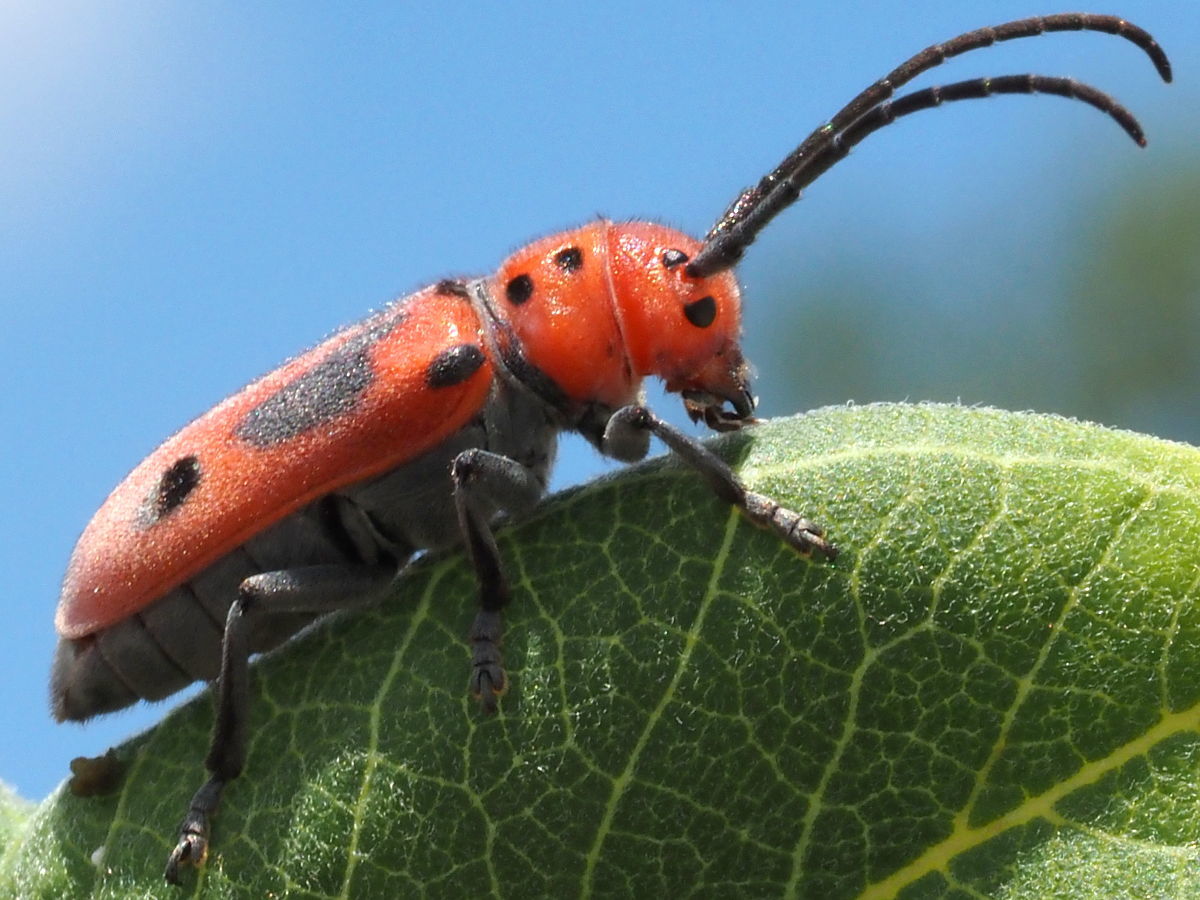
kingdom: Animalia
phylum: Arthropoda
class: Insecta
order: Coleoptera
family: Cerambycidae
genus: Tetraopes
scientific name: Tetraopes tetrophthalmus
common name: Red milkweed beetle
